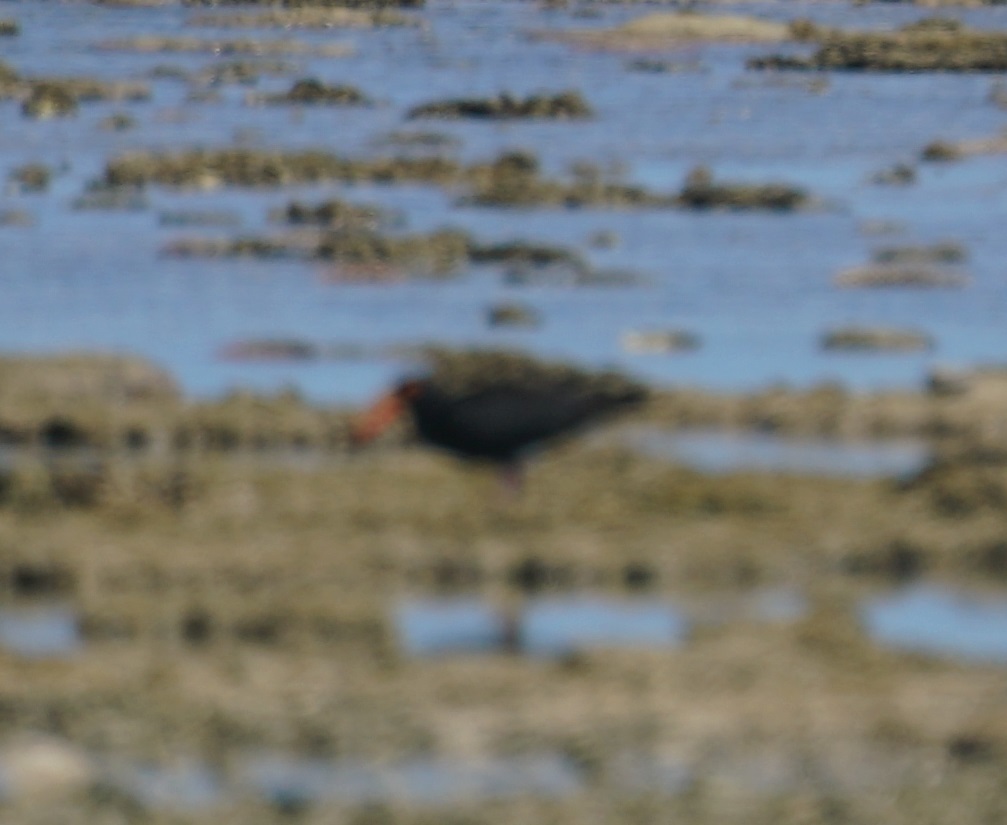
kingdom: Animalia
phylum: Chordata
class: Aves
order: Charadriiformes
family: Haematopodidae
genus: Haematopus
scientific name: Haematopus fuliginosus
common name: Sooty oystercatcher
